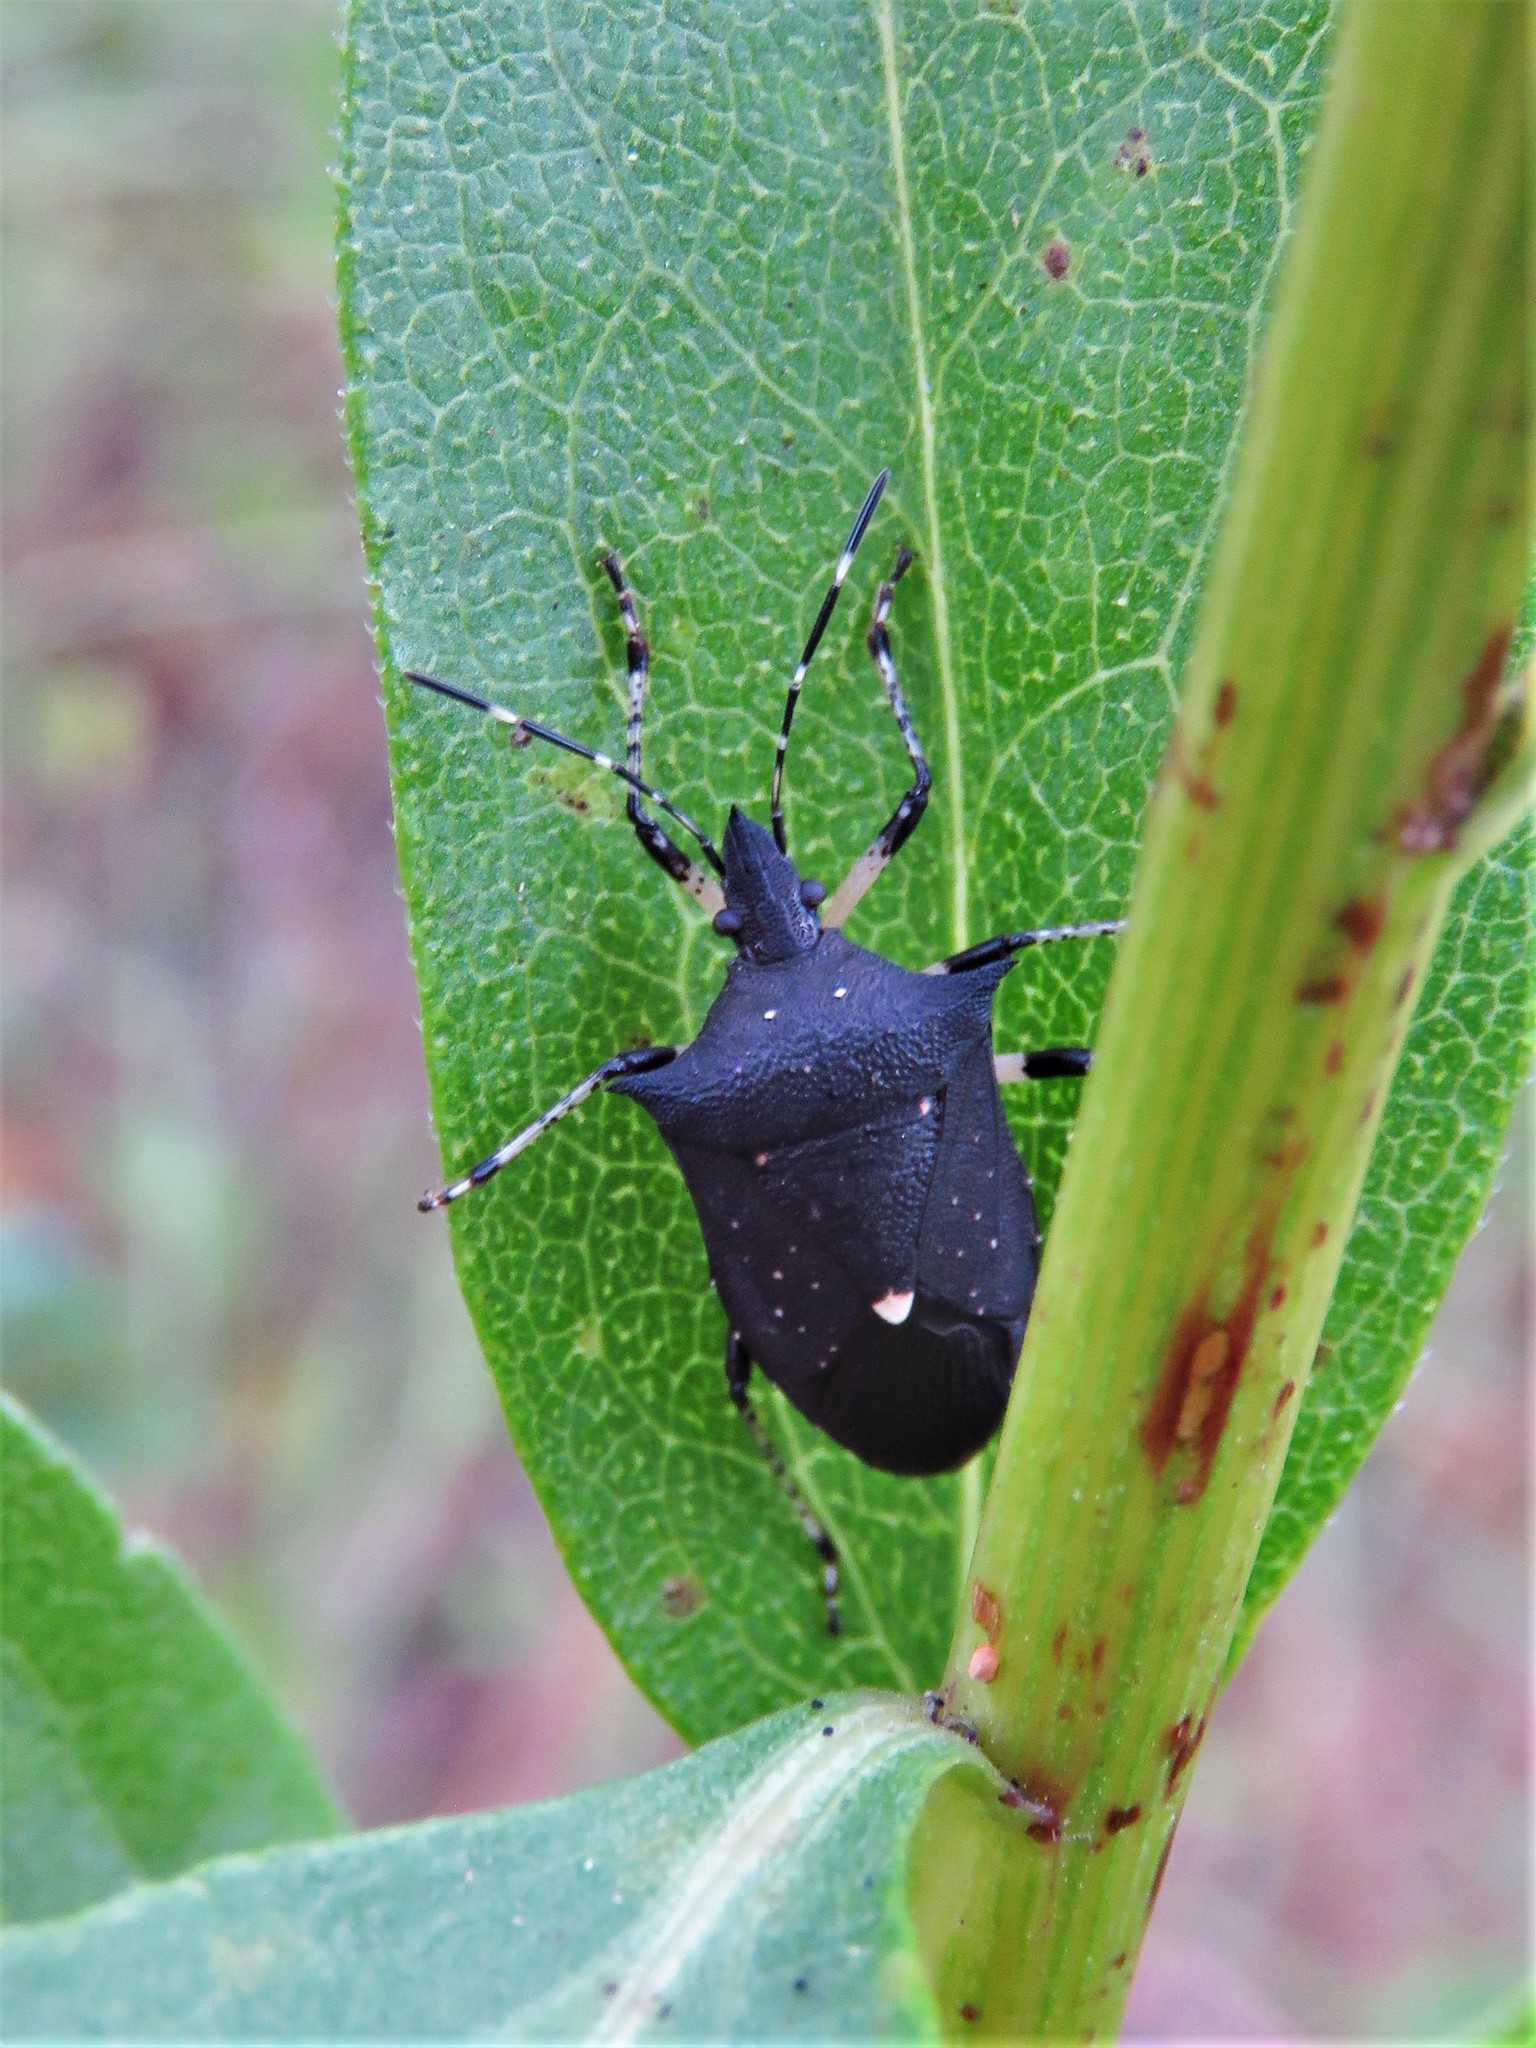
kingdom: Animalia
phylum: Arthropoda
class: Insecta
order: Hemiptera
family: Pentatomidae
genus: Proxys
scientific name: Proxys punctulatus
